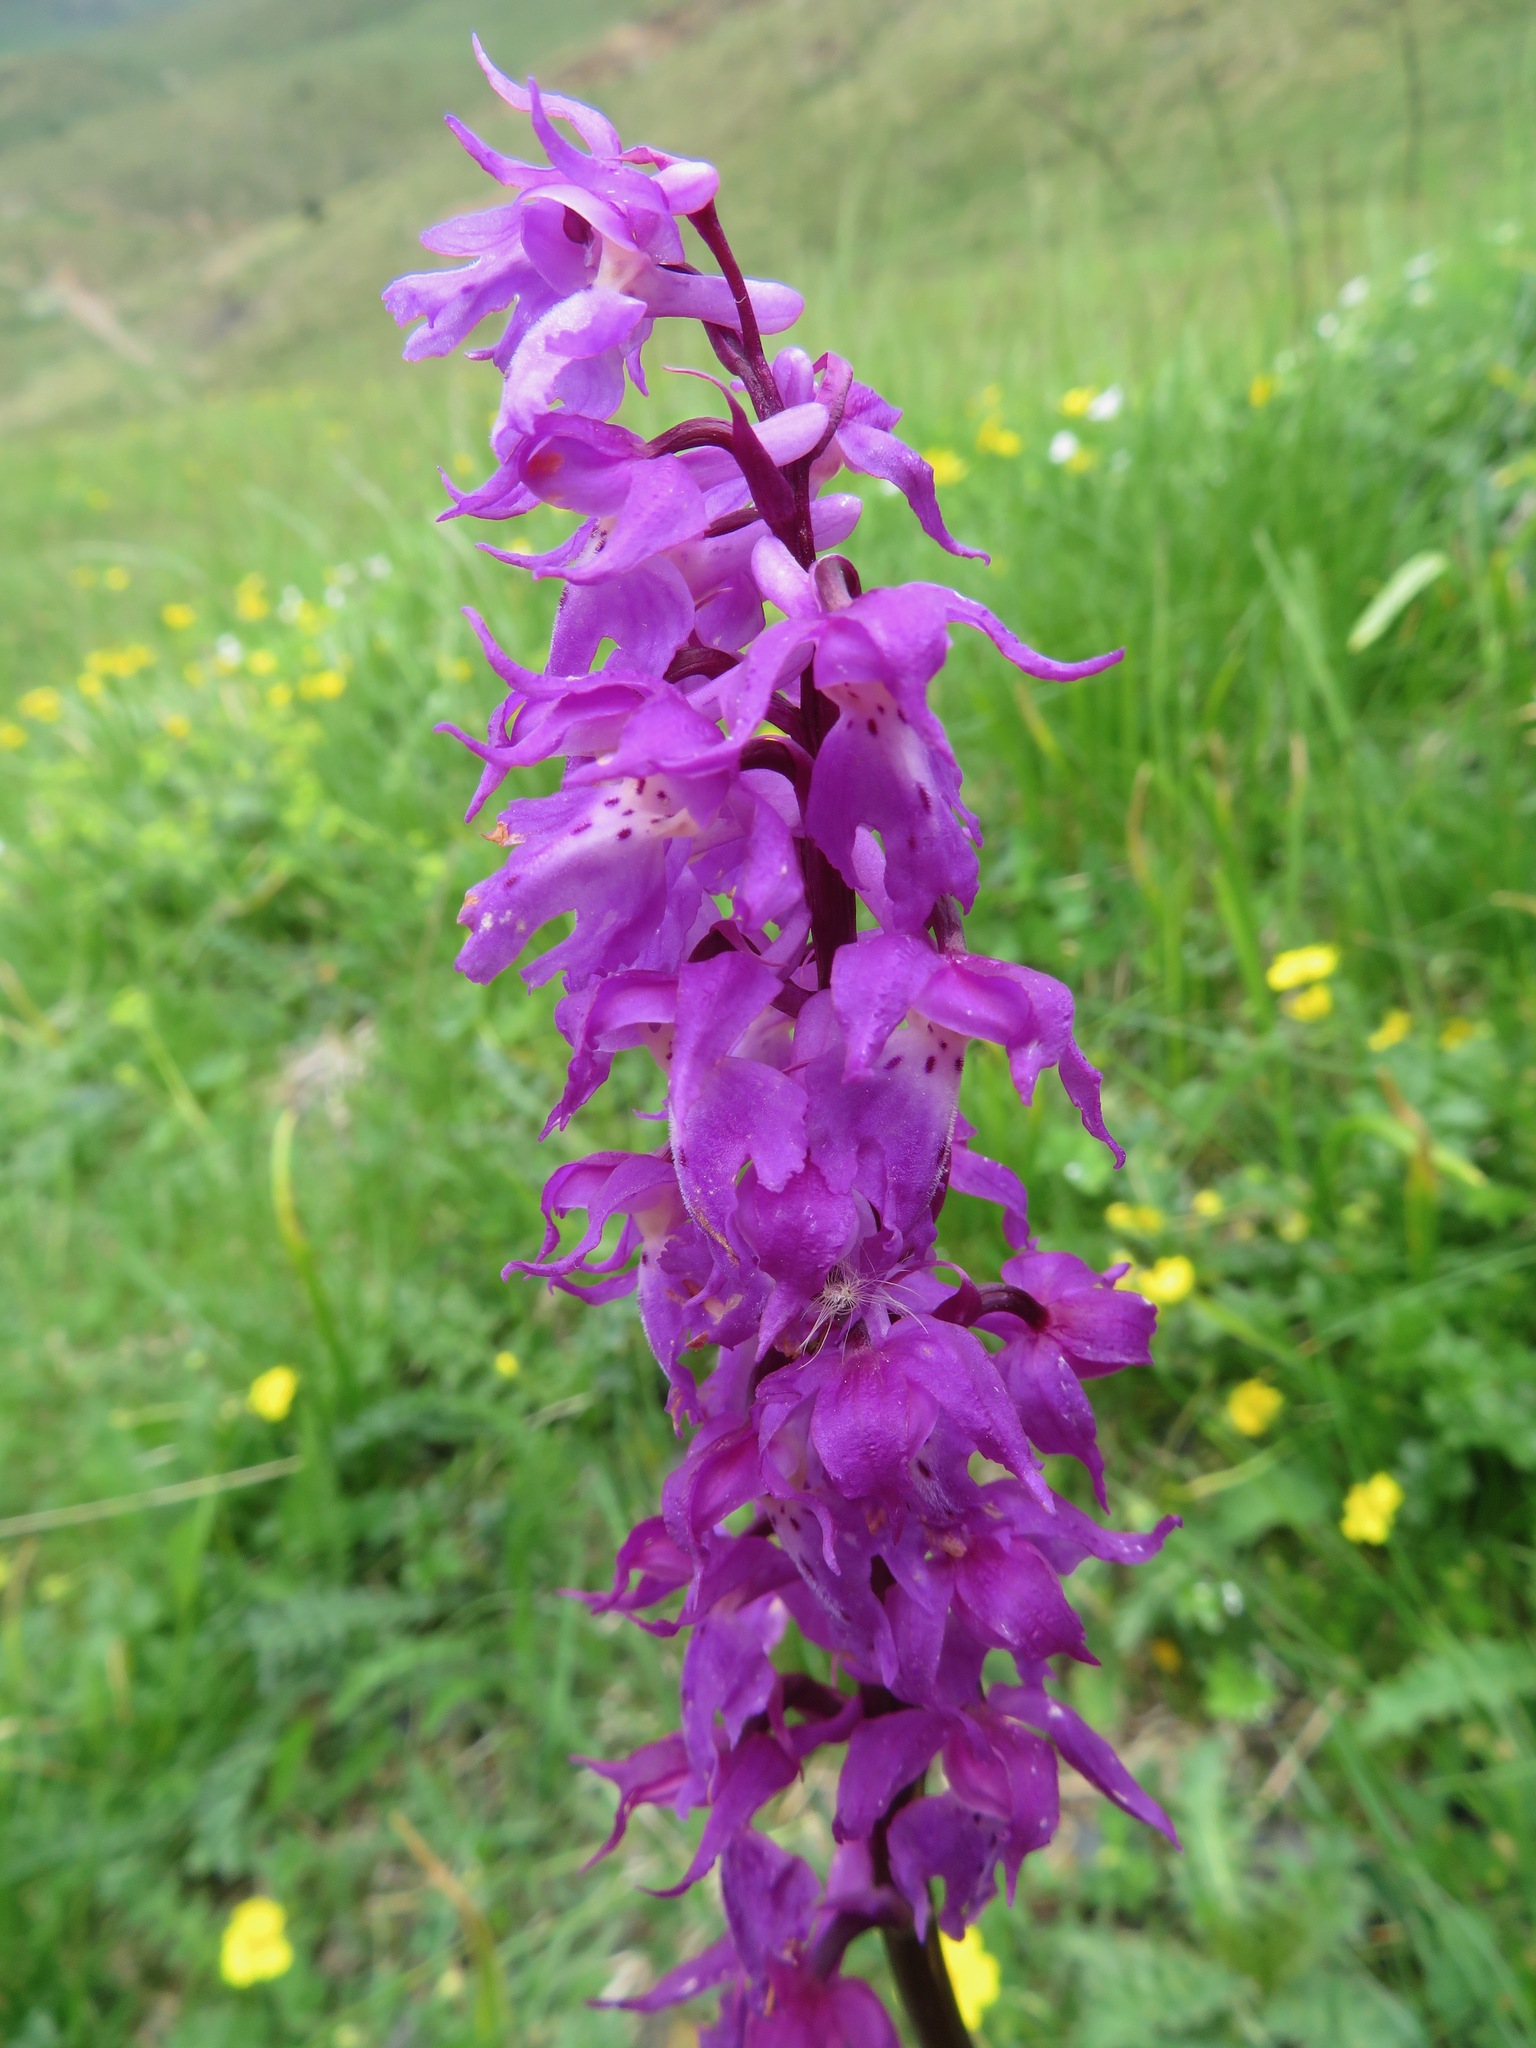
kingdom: Plantae
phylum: Tracheophyta
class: Liliopsida
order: Asparagales
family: Orchidaceae
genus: Orchis
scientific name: Orchis mascula
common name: Early-purple orchid
